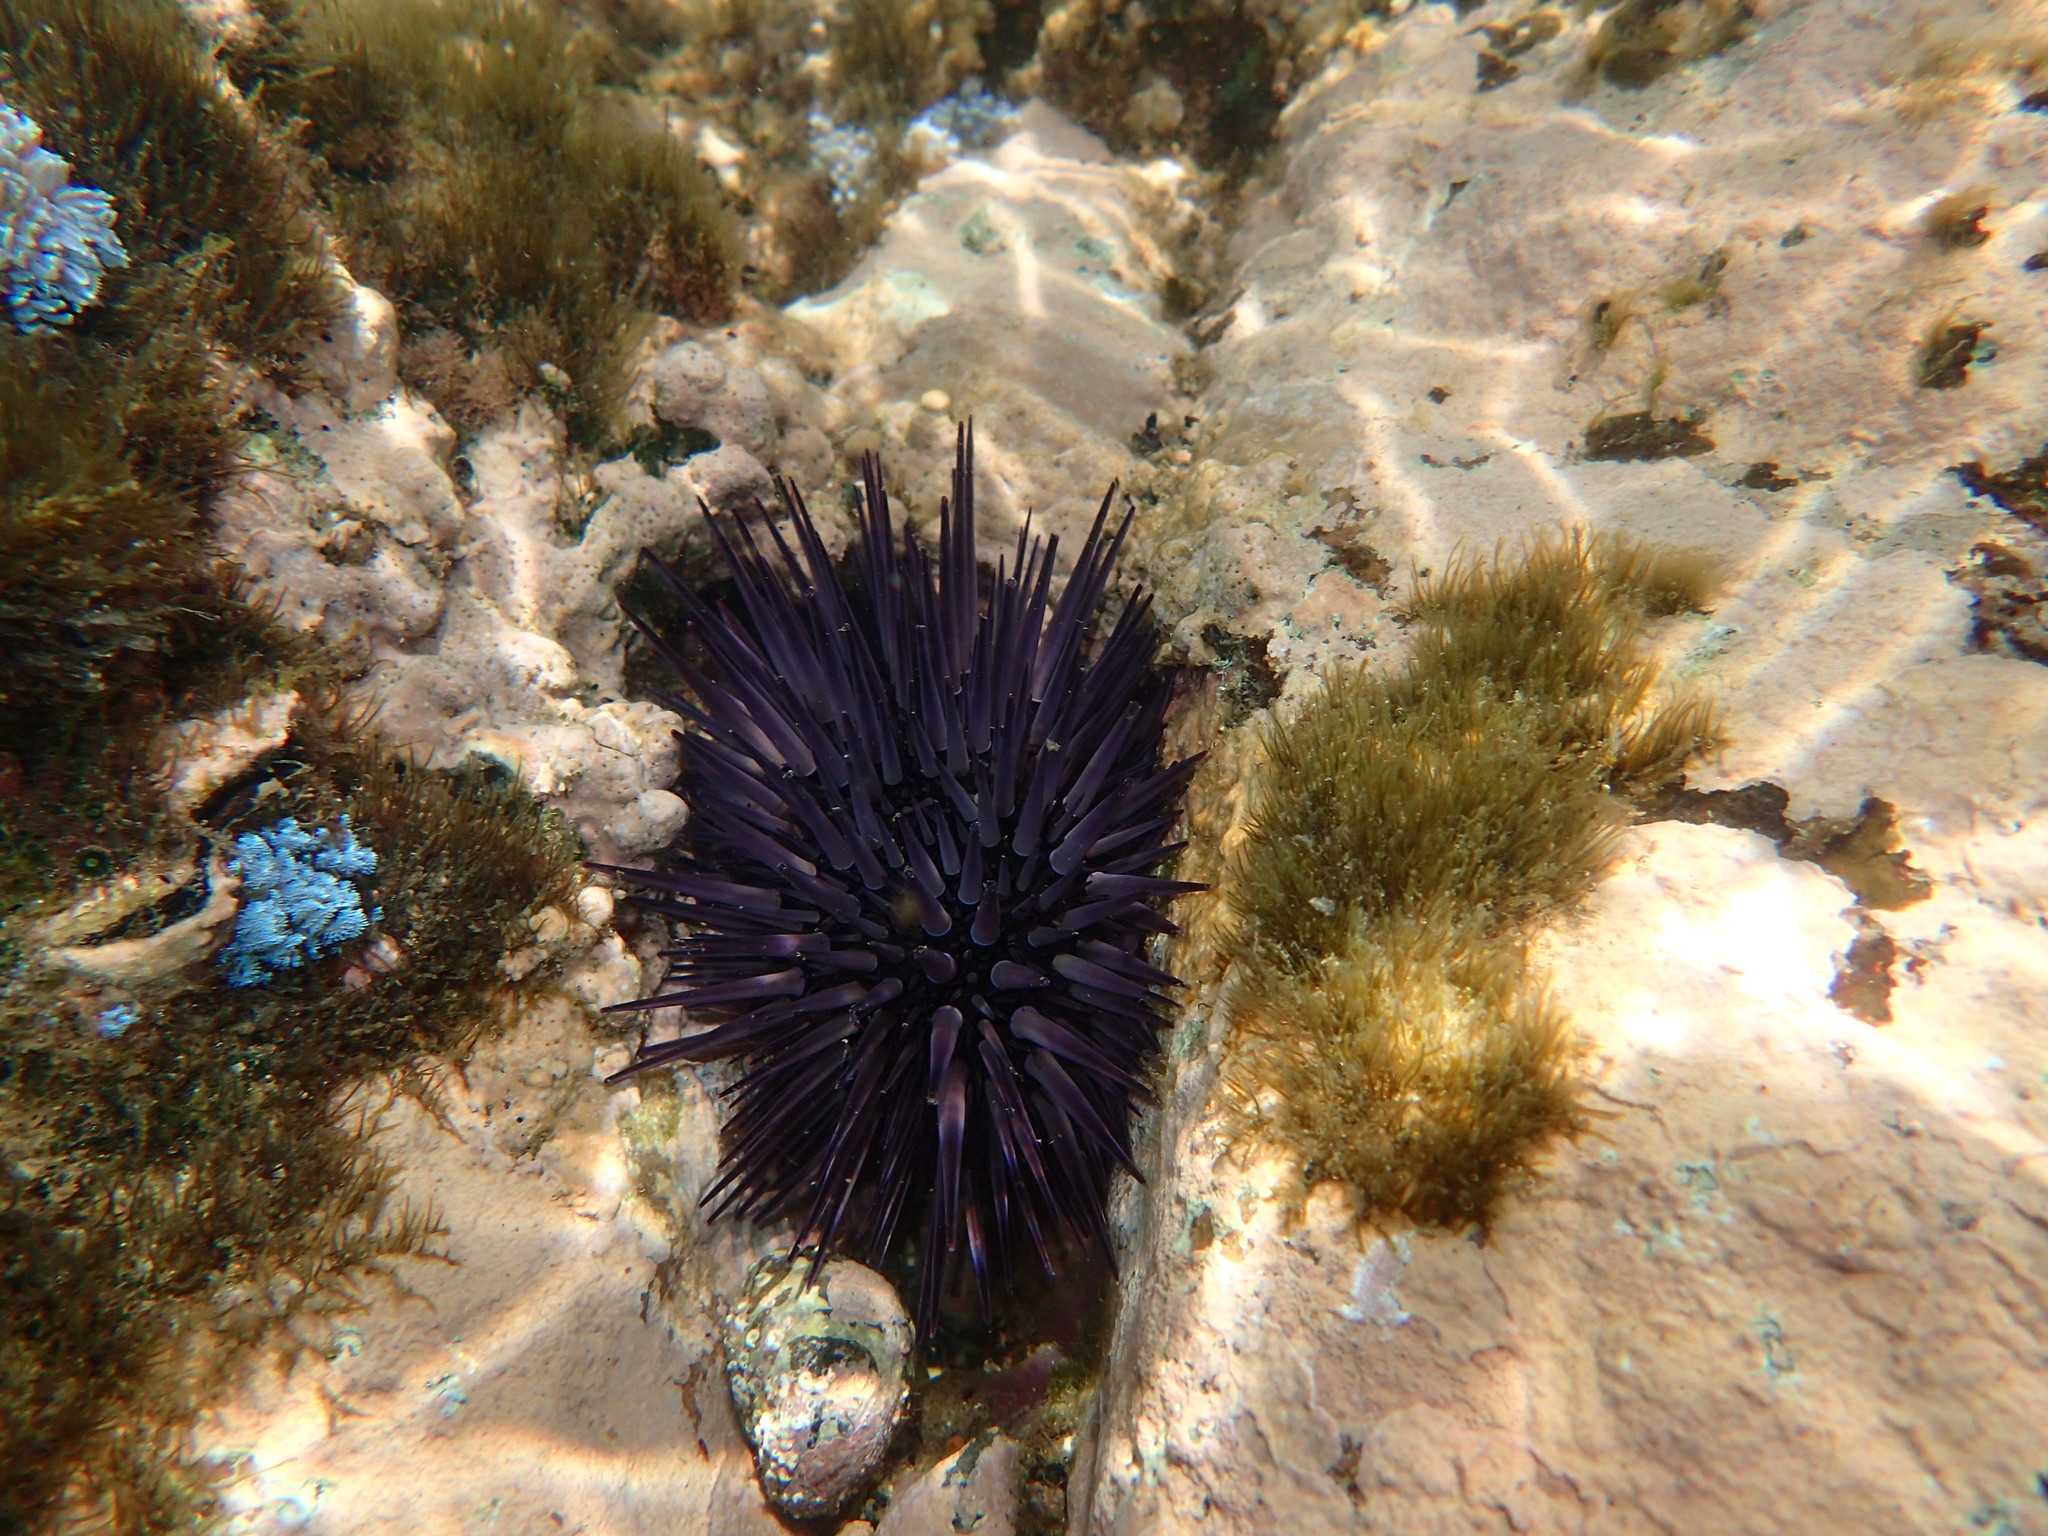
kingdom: Animalia
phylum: Echinodermata
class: Echinoidea
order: Camarodonta
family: Echinometridae
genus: Echinometra
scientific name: Echinometra mathaei
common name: Rock-boring urchin
